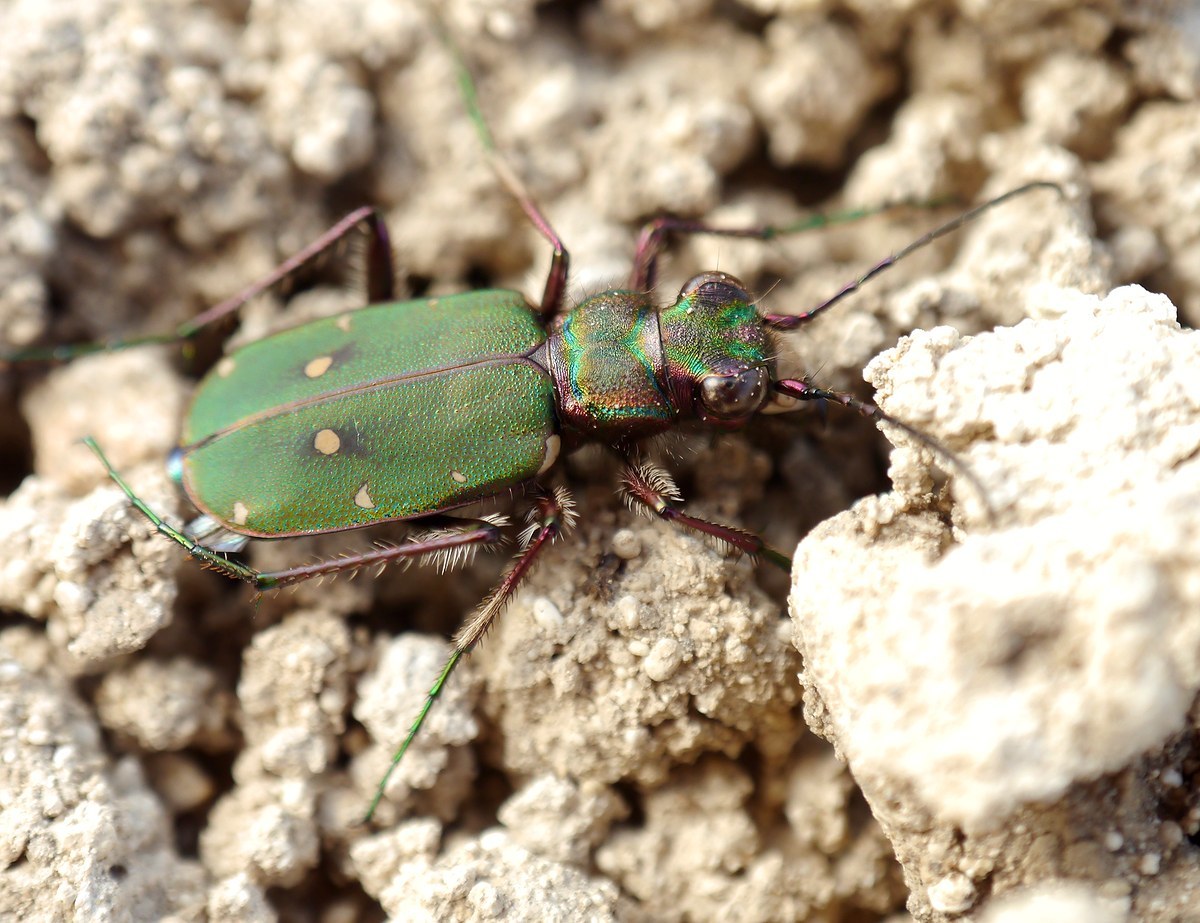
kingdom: Animalia
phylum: Arthropoda
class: Insecta
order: Coleoptera
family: Carabidae
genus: Cicindela
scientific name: Cicindela campestris
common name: Common tiger beetle
